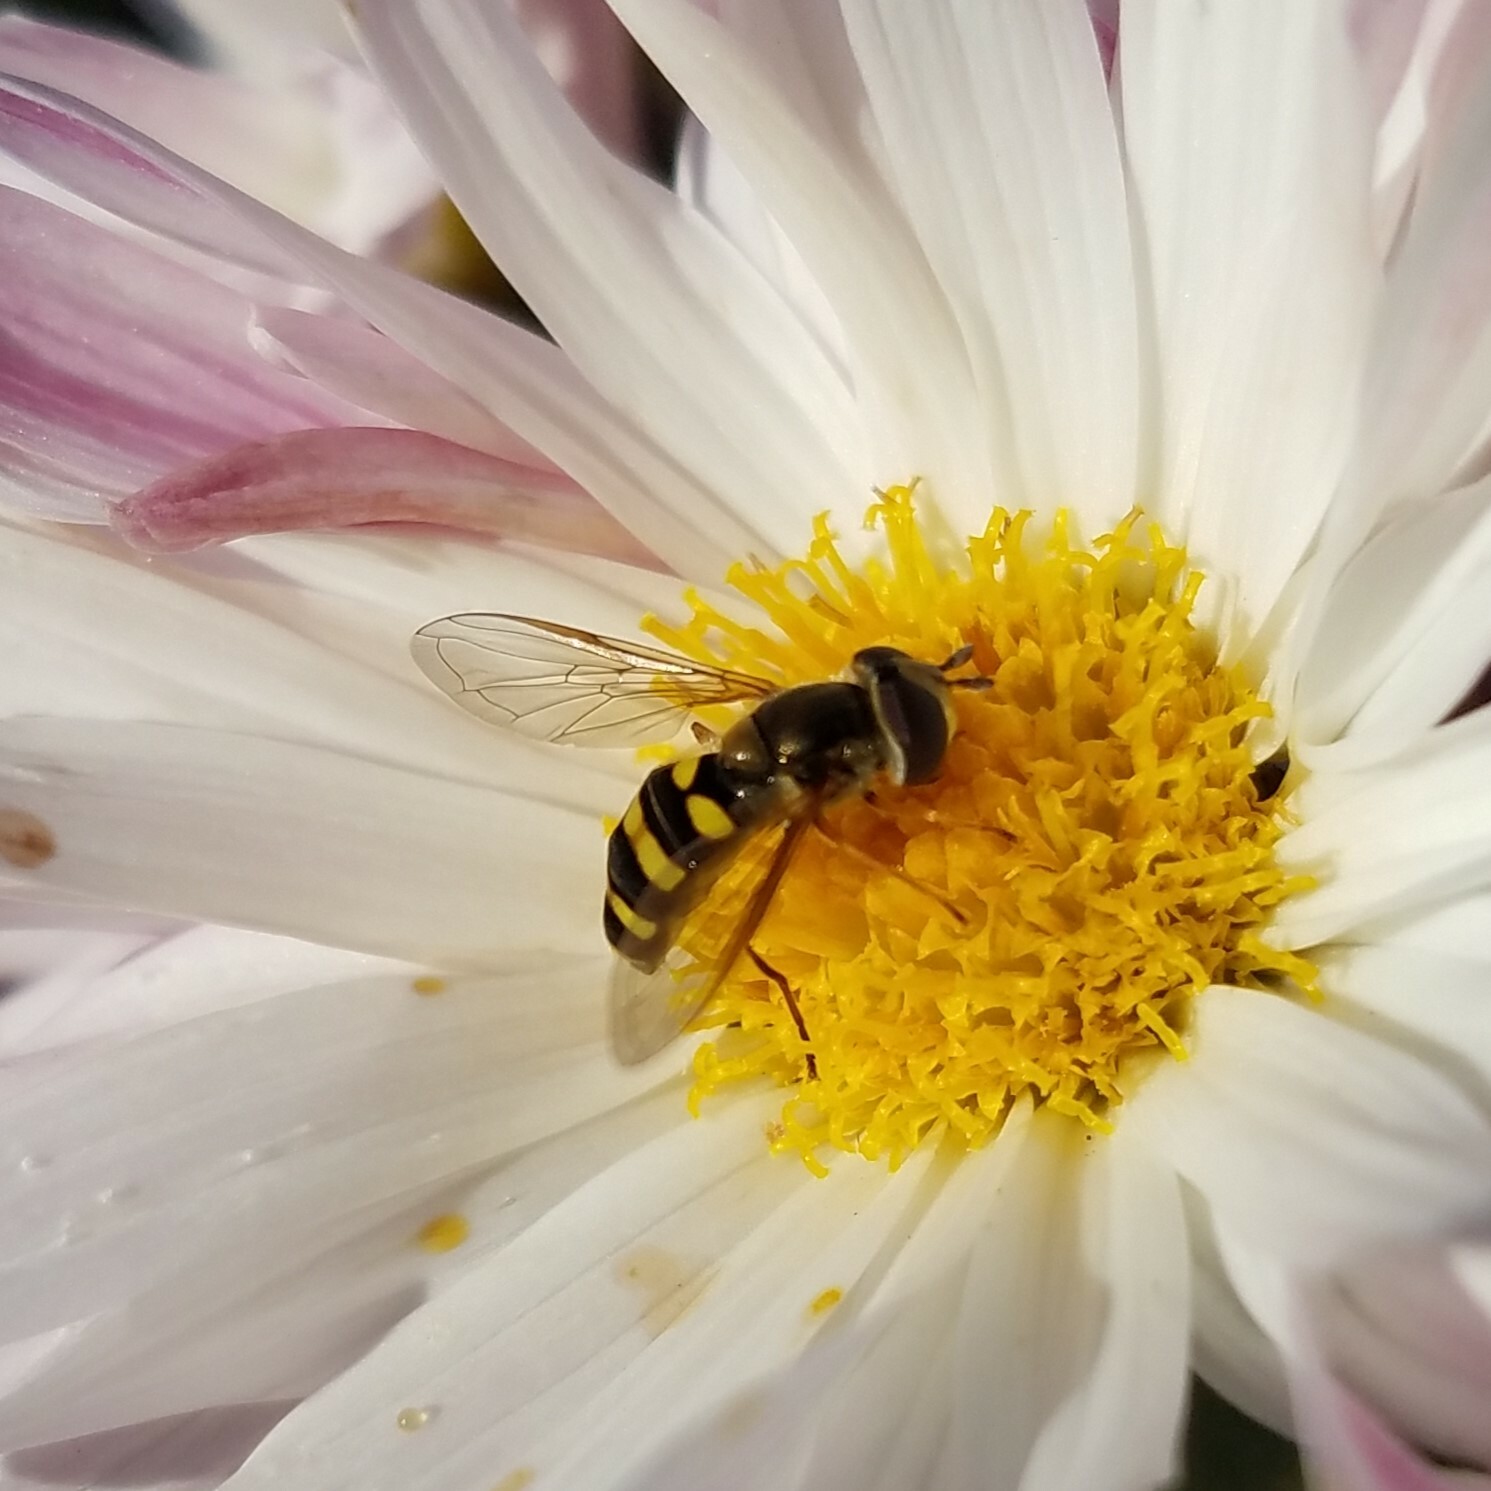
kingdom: Animalia
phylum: Arthropoda
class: Insecta
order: Diptera
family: Syrphidae
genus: Eupeodes
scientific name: Eupeodes
